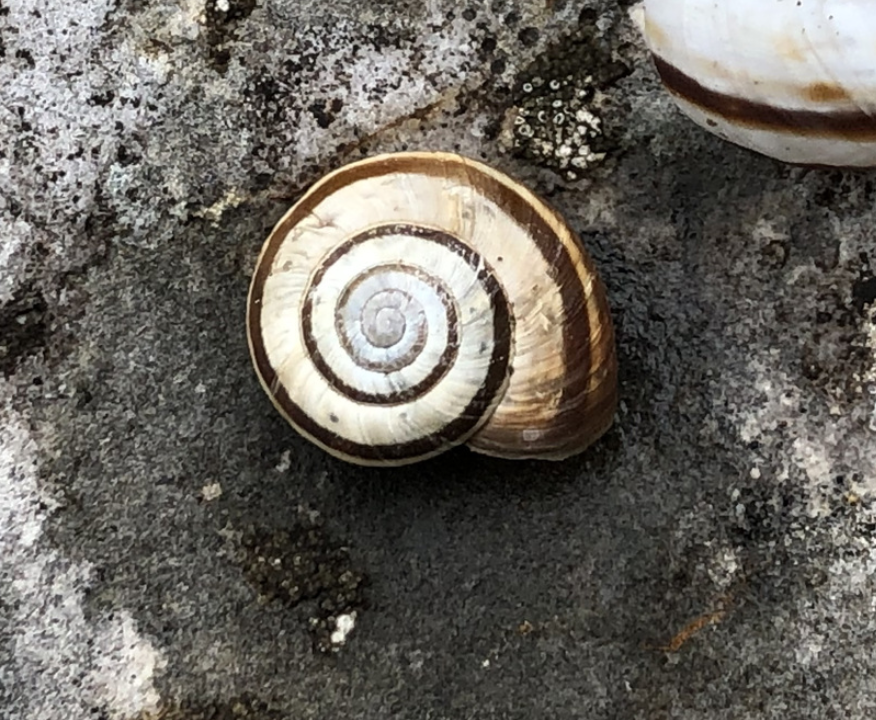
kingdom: Animalia
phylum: Mollusca
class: Gastropoda
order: Stylommatophora
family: Geomitridae
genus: Xerolenta
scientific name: Xerolenta obvia
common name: White heath snail
